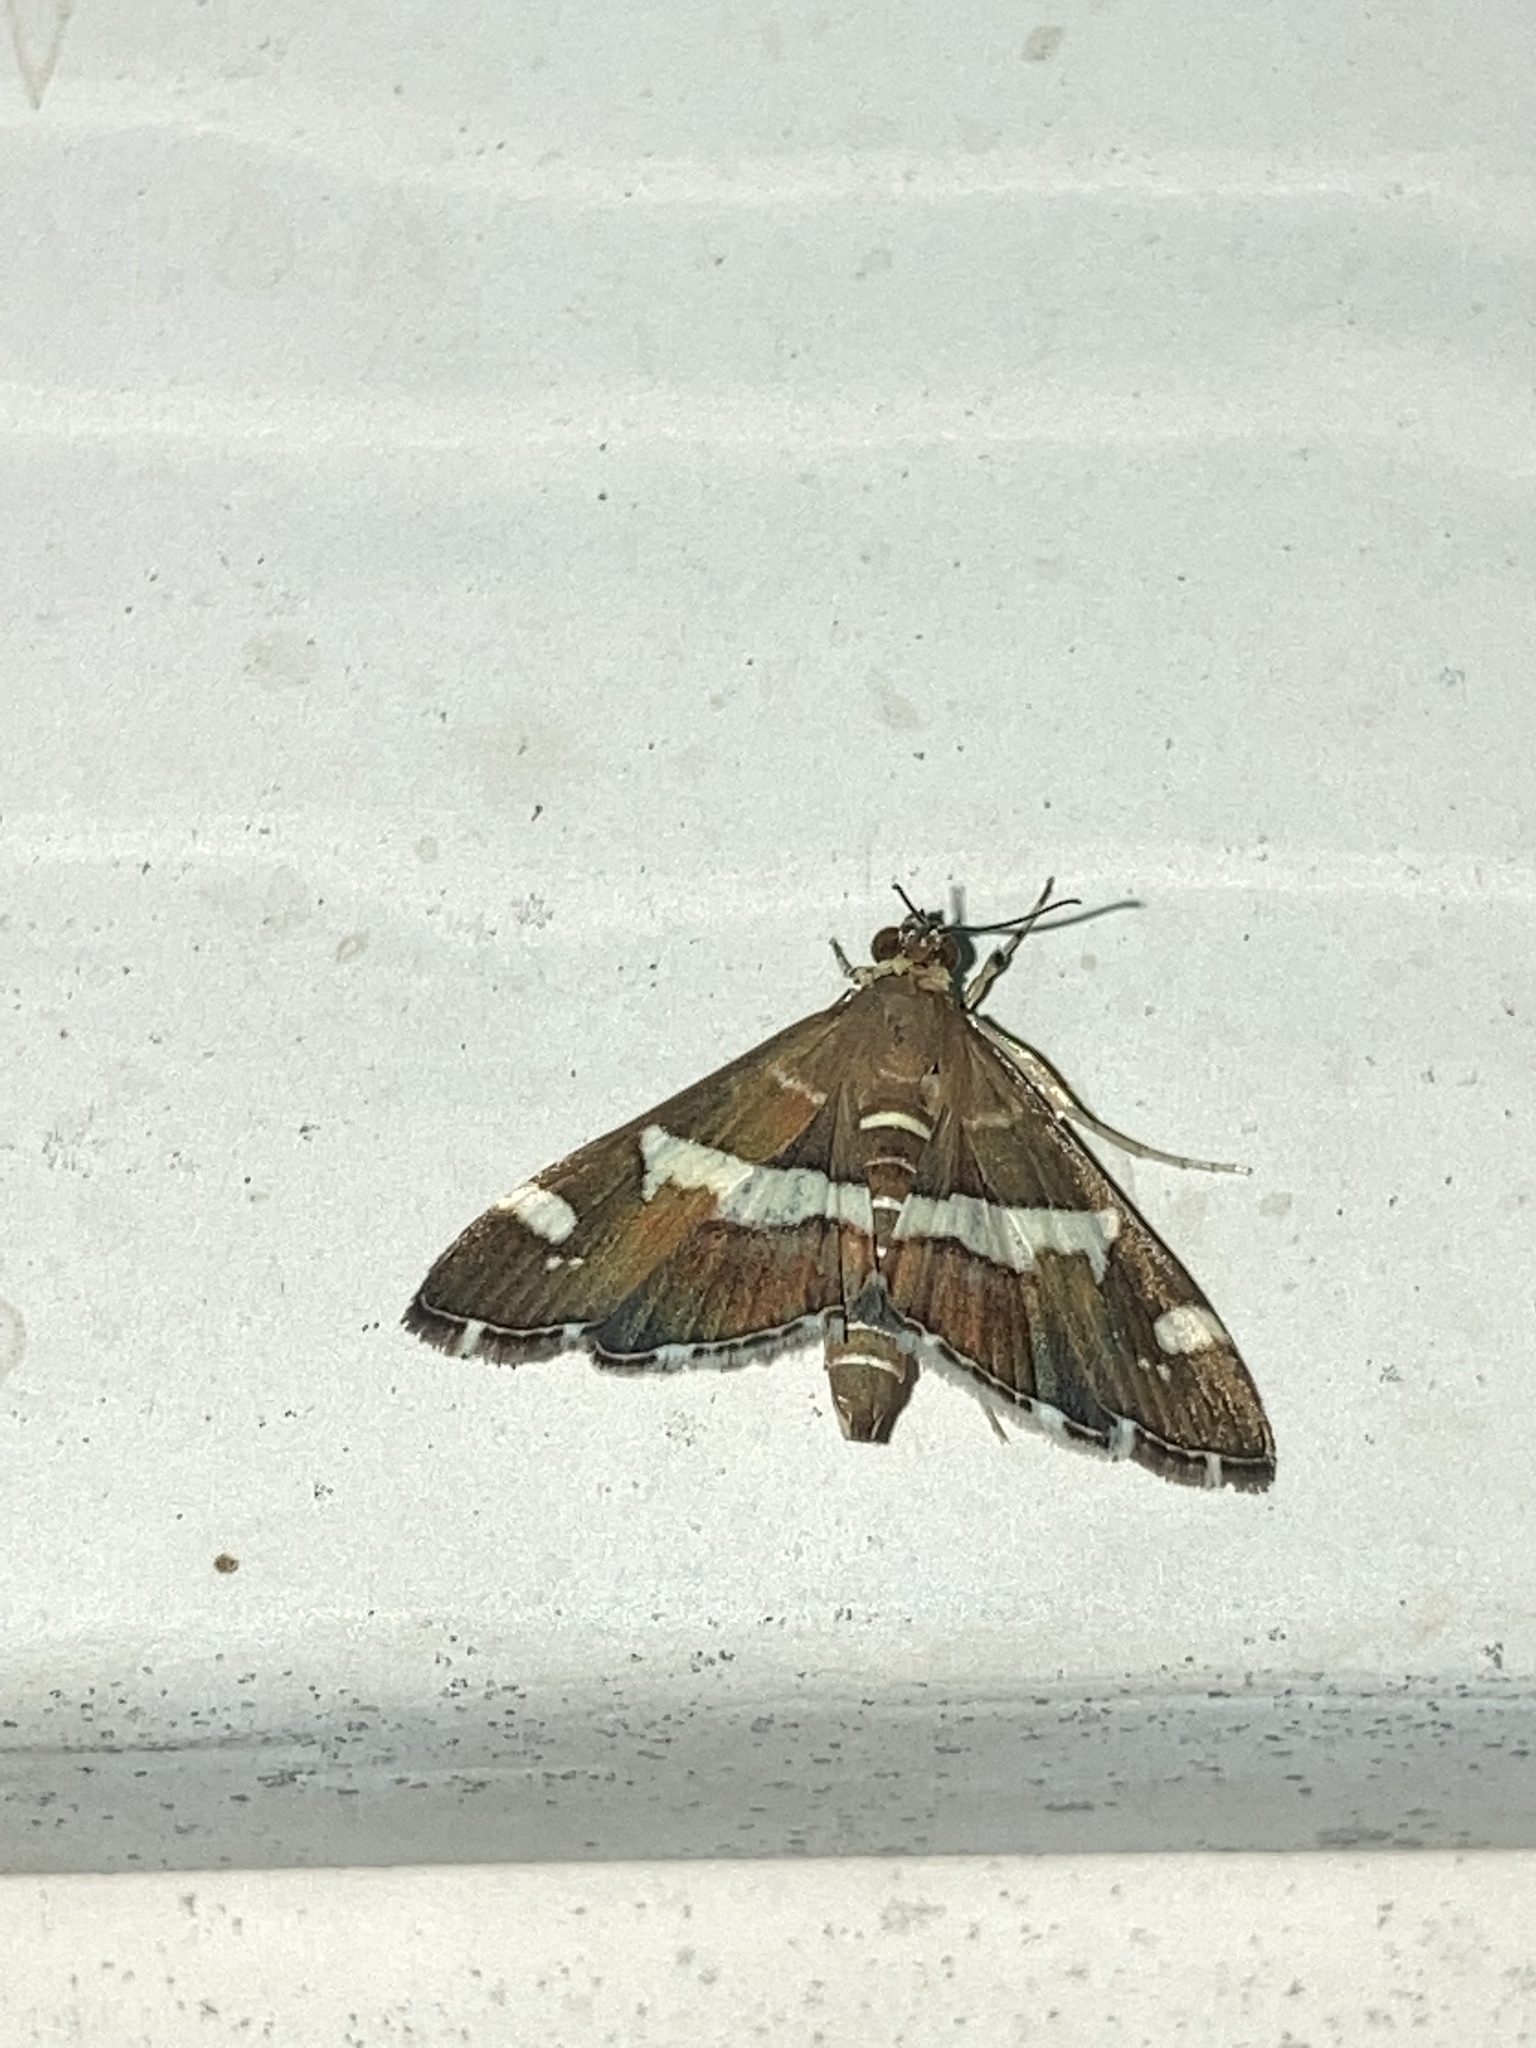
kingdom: Animalia
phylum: Arthropoda
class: Insecta
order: Lepidoptera
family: Crambidae
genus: Spoladea
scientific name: Spoladea recurvalis
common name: Beet webworm moth
